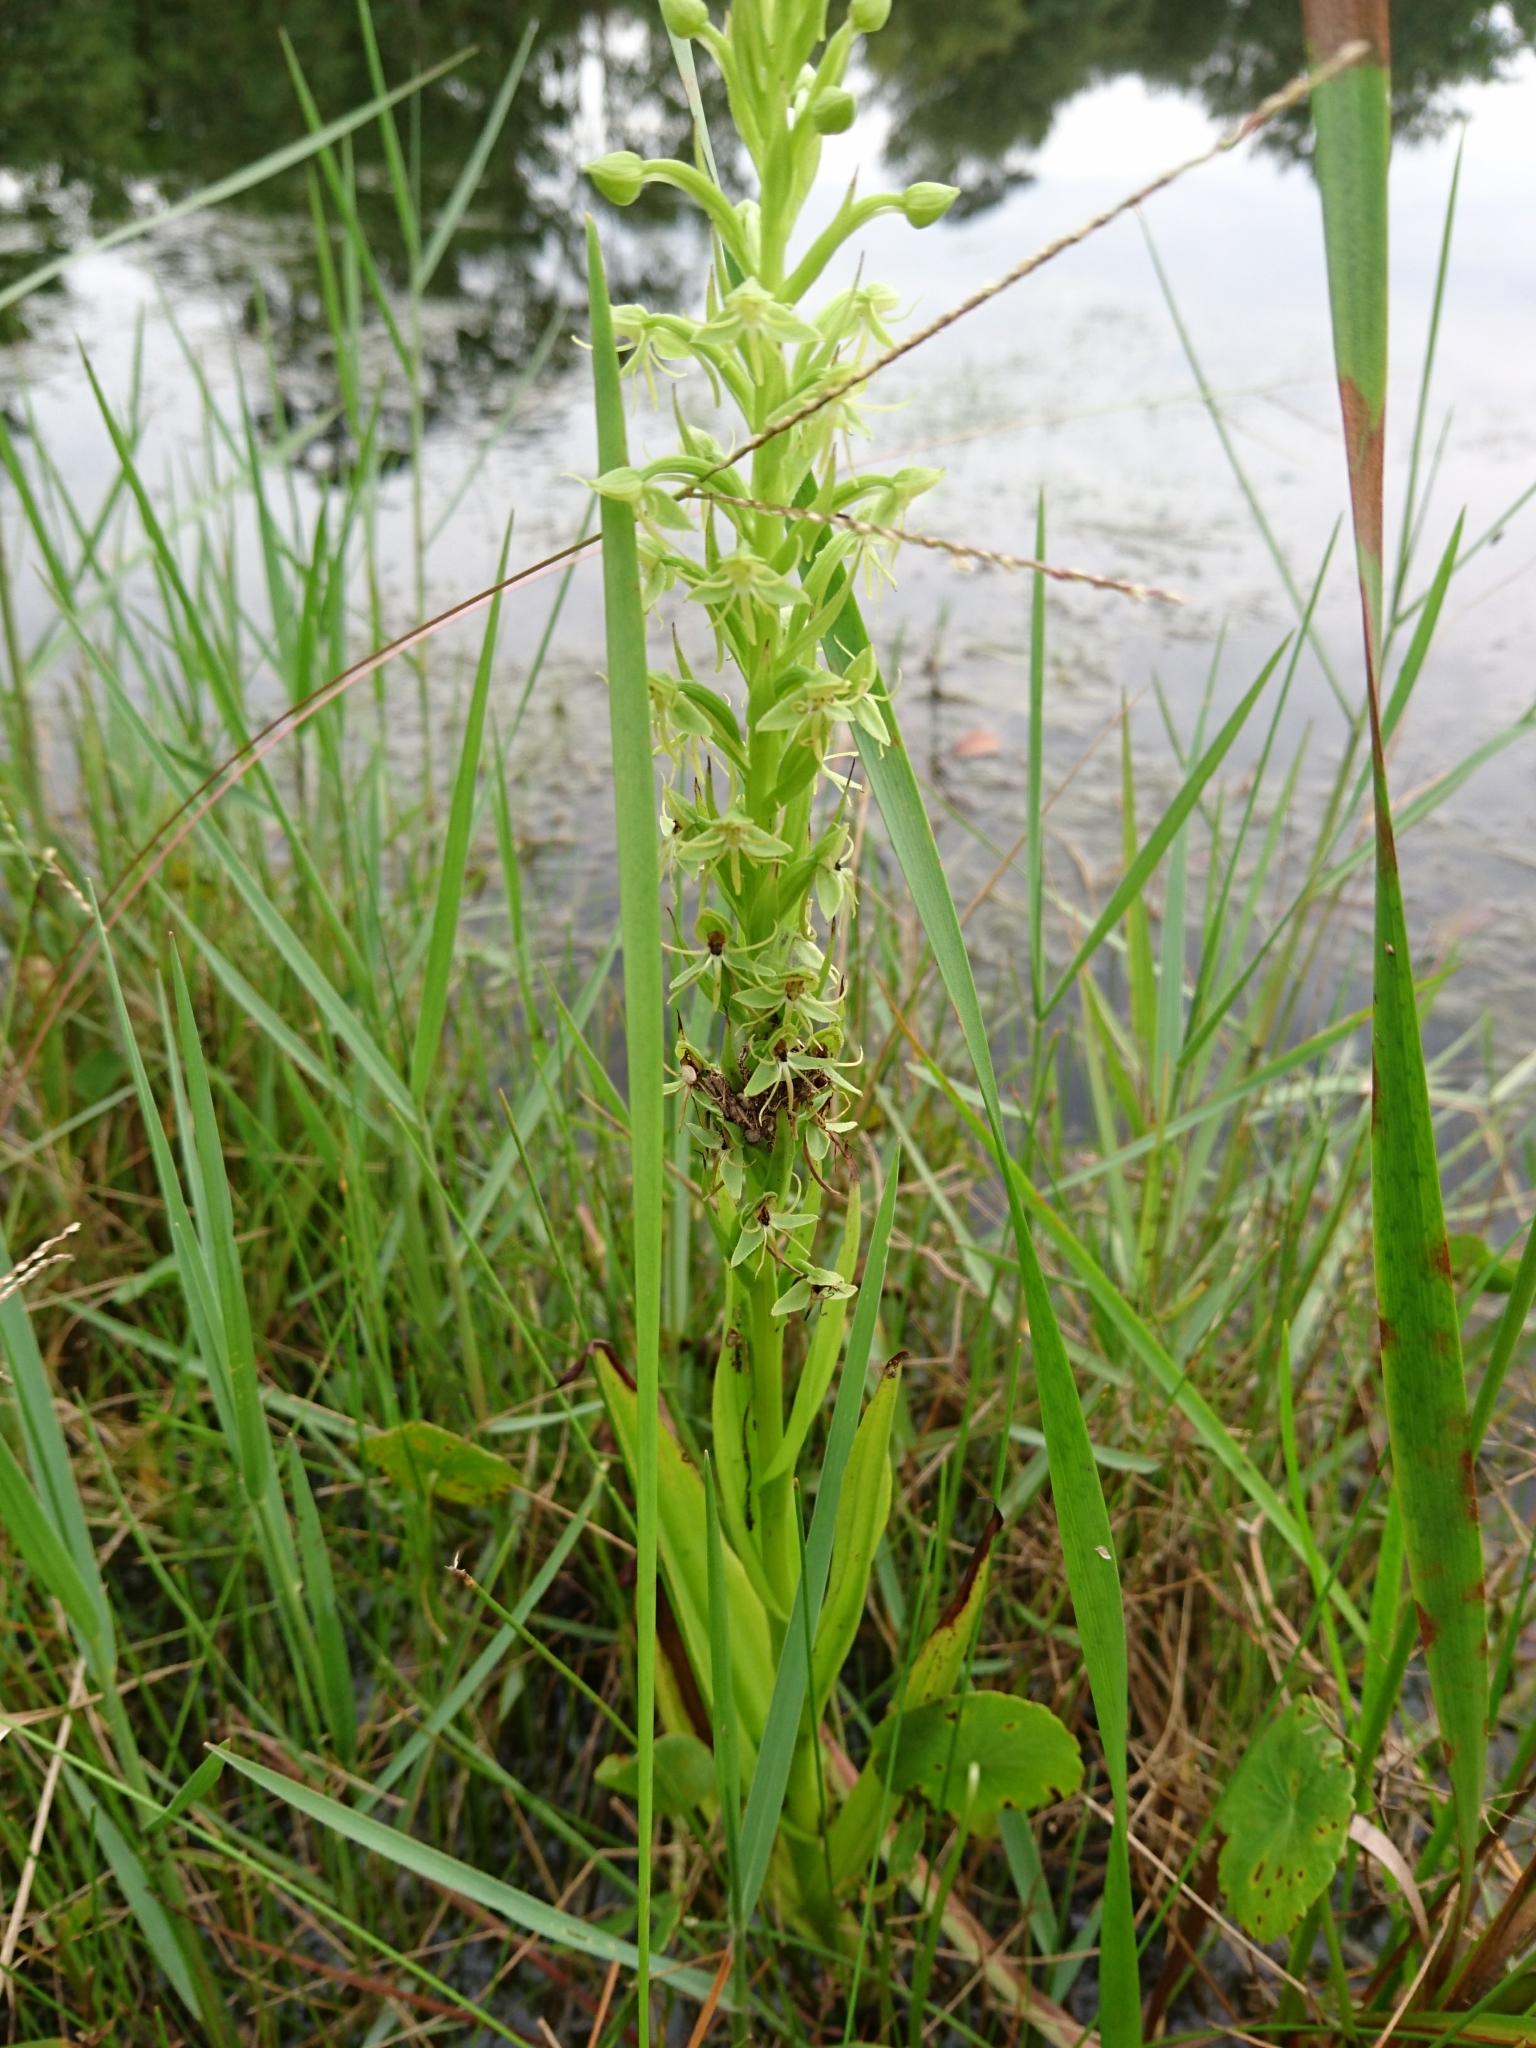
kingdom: Plantae
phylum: Tracheophyta
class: Liliopsida
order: Asparagales
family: Orchidaceae
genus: Habenaria
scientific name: Habenaria repens
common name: Water orchid
